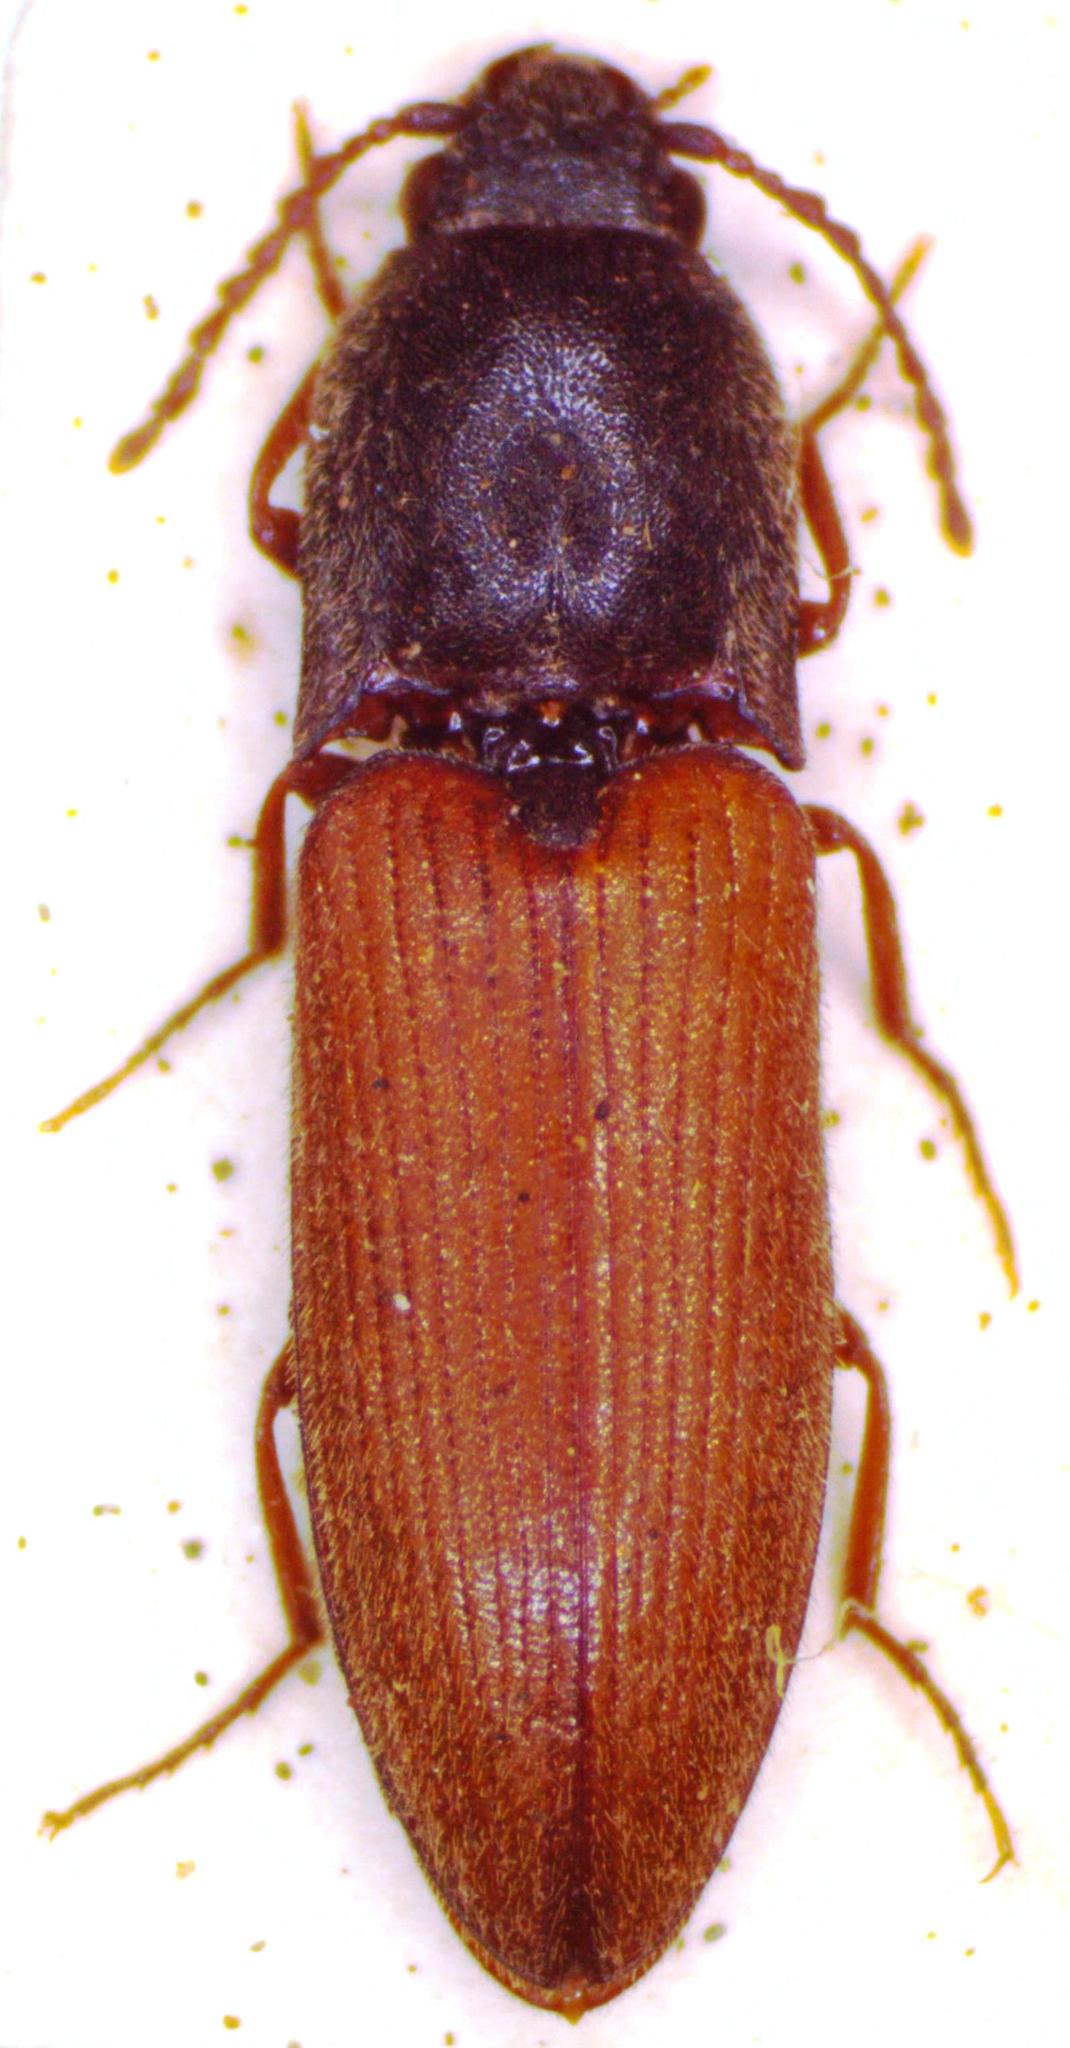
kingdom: Animalia
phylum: Arthropoda
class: Insecta
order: Coleoptera
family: Elateridae
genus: Agriotes
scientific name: Agriotes ustulatus
